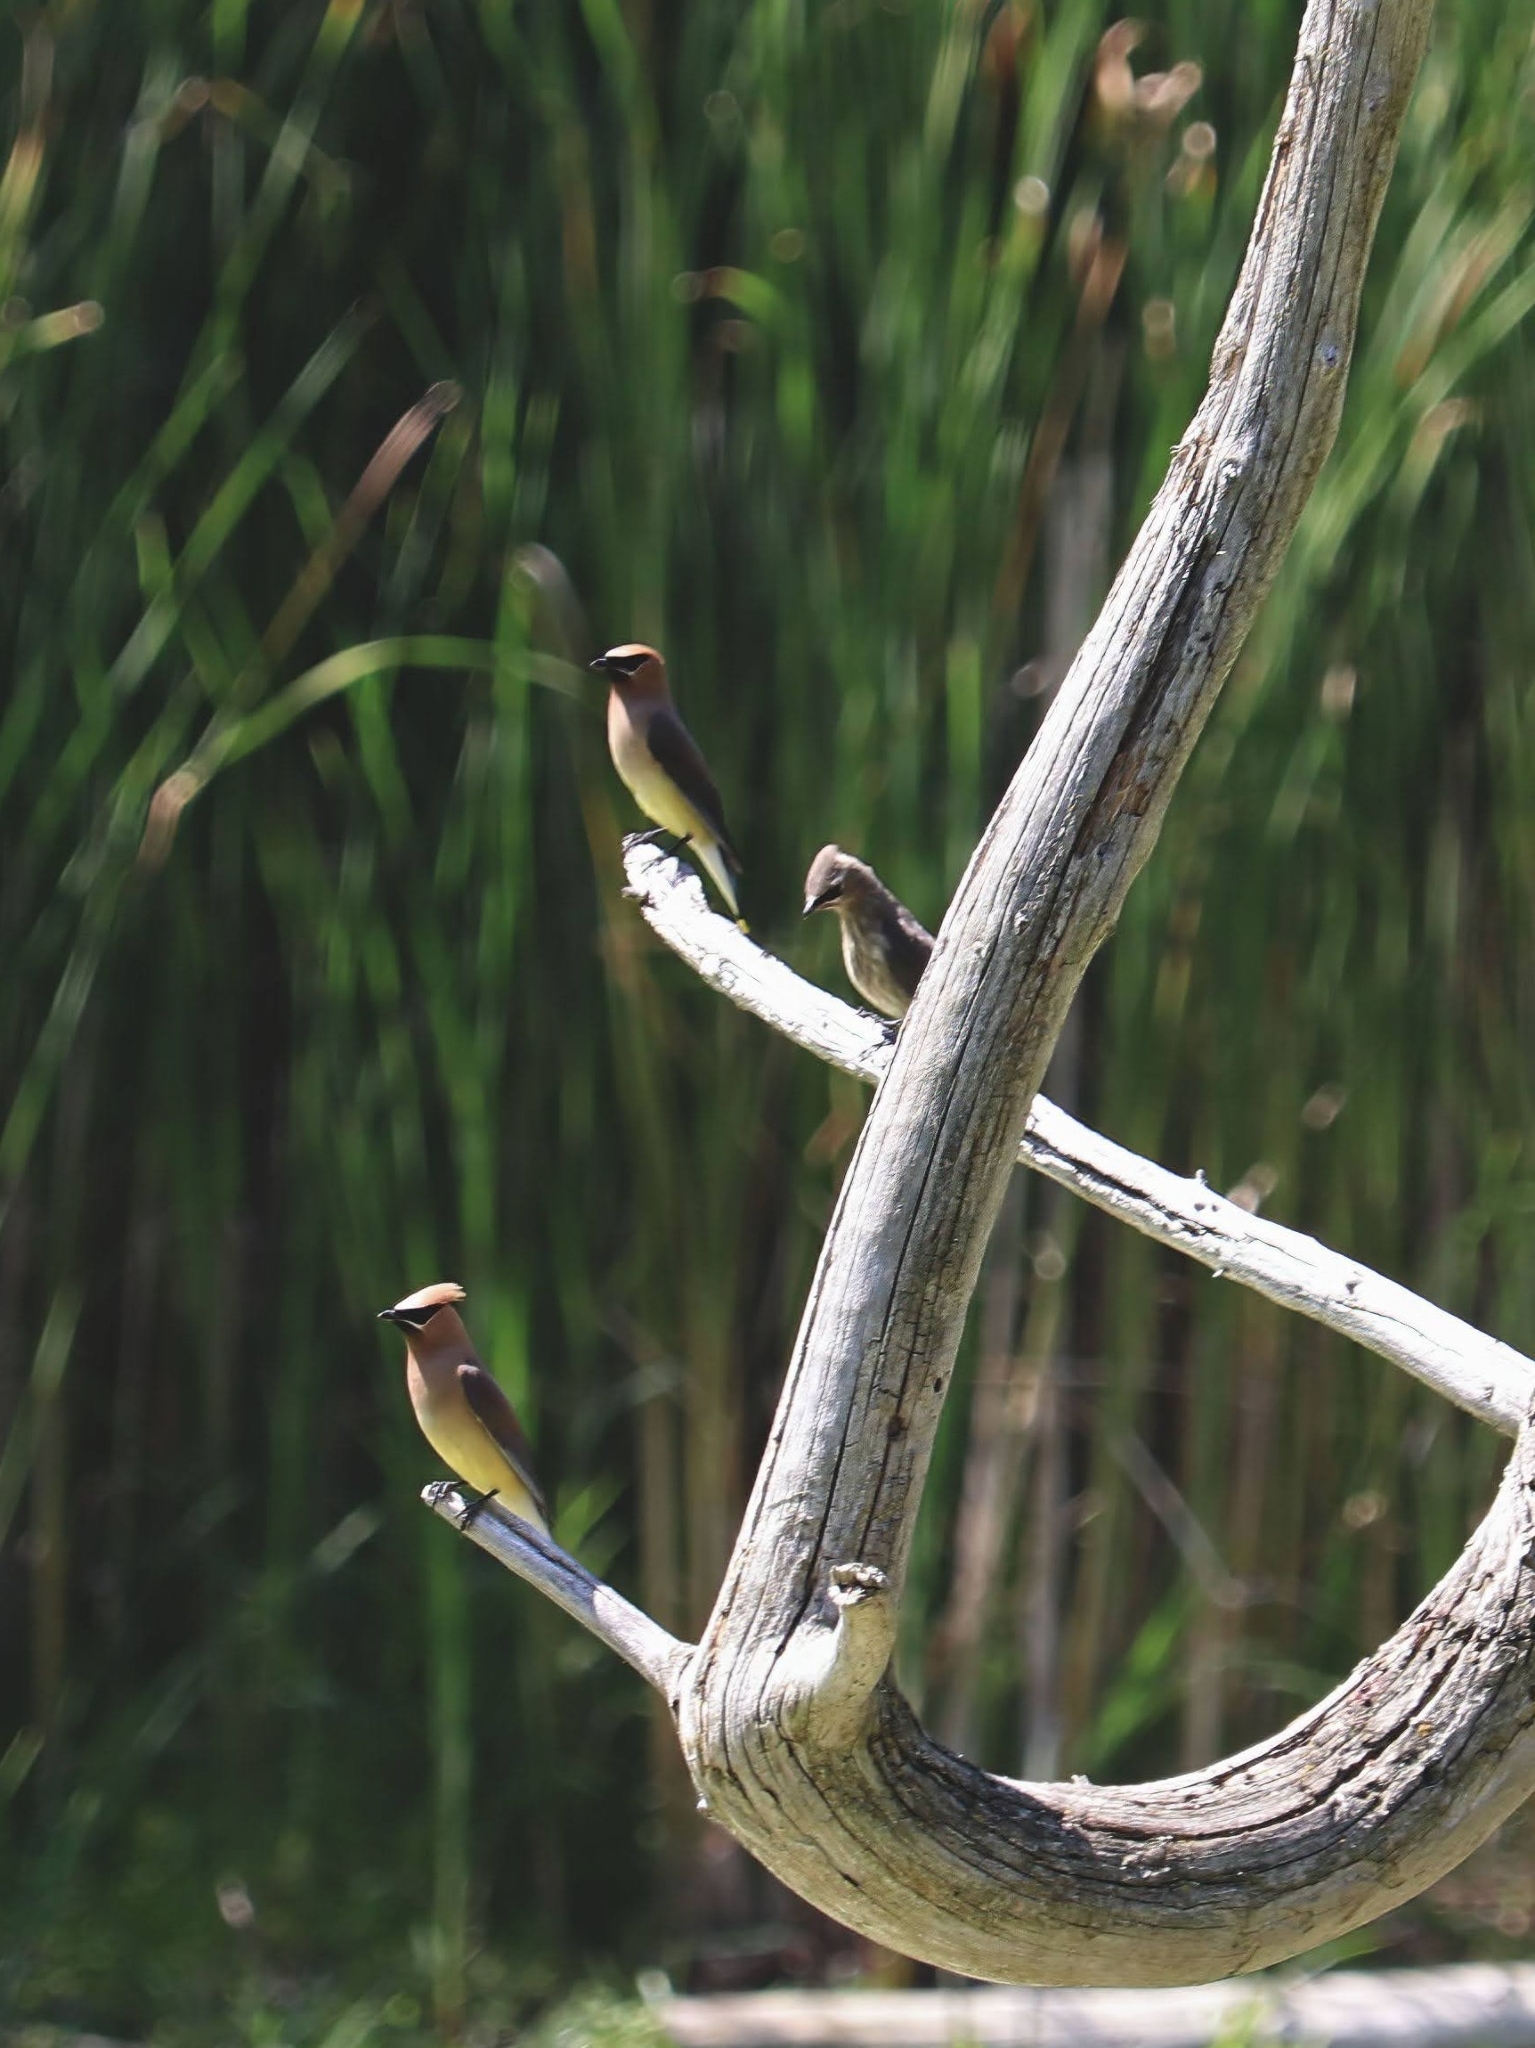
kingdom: Animalia
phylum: Chordata
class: Aves
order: Passeriformes
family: Bombycillidae
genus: Bombycilla
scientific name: Bombycilla cedrorum
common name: Cedar waxwing
